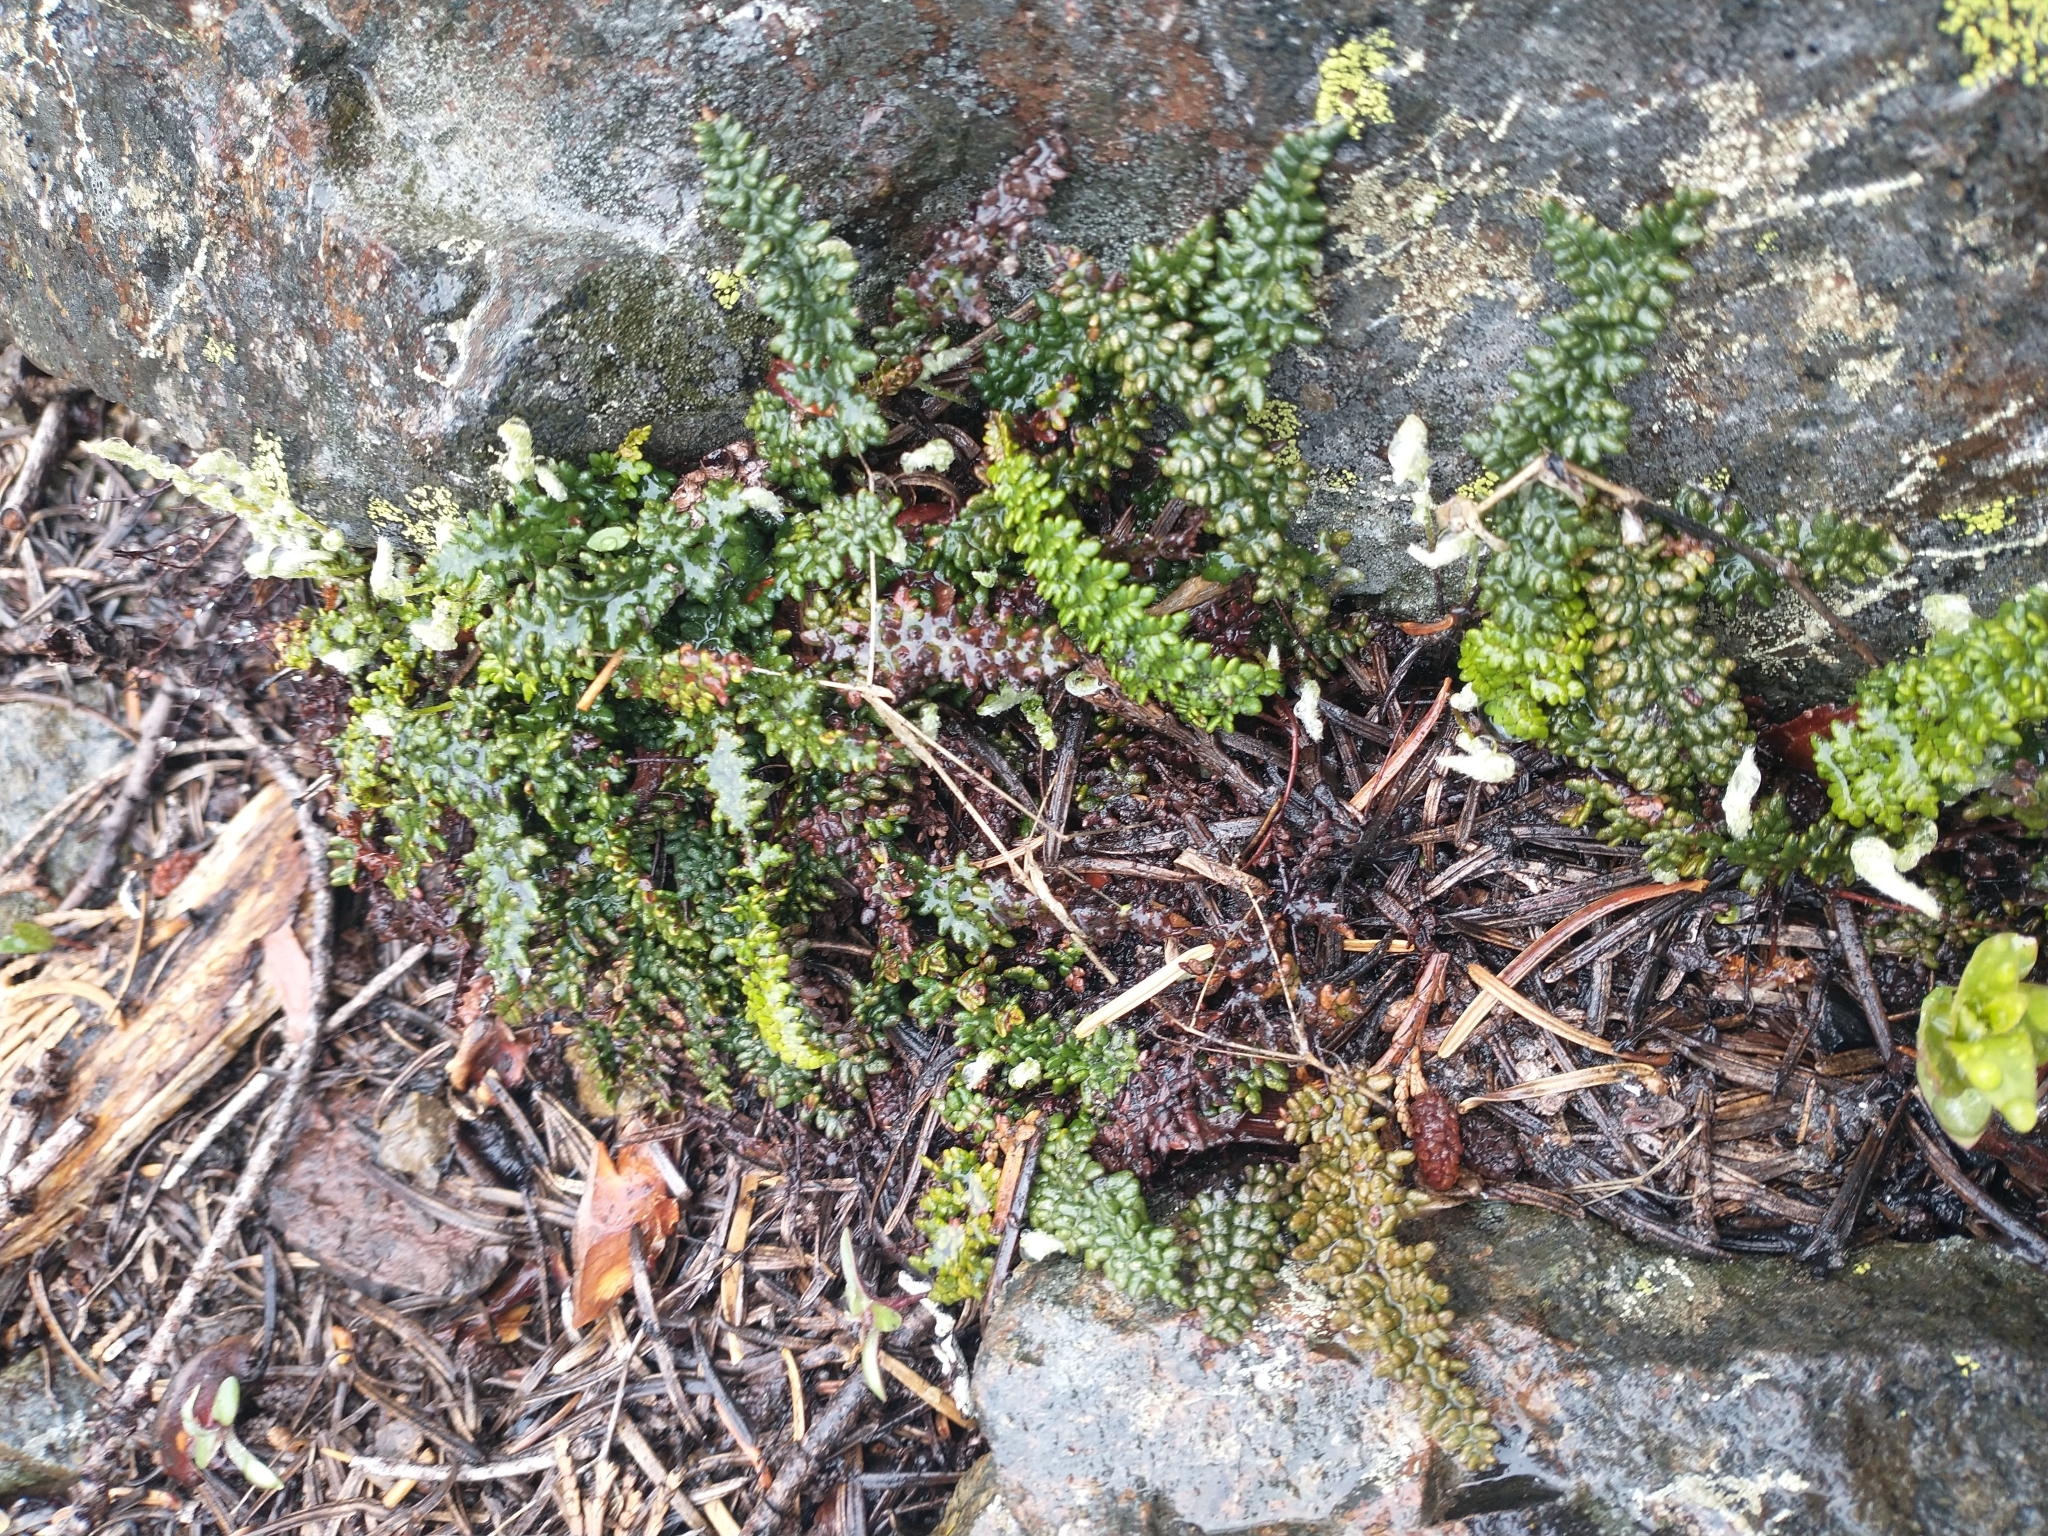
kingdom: Plantae
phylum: Tracheophyta
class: Polypodiopsida
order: Polypodiales
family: Pteridaceae
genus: Myriopteris
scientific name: Myriopteris gracillima
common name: Lace fern
